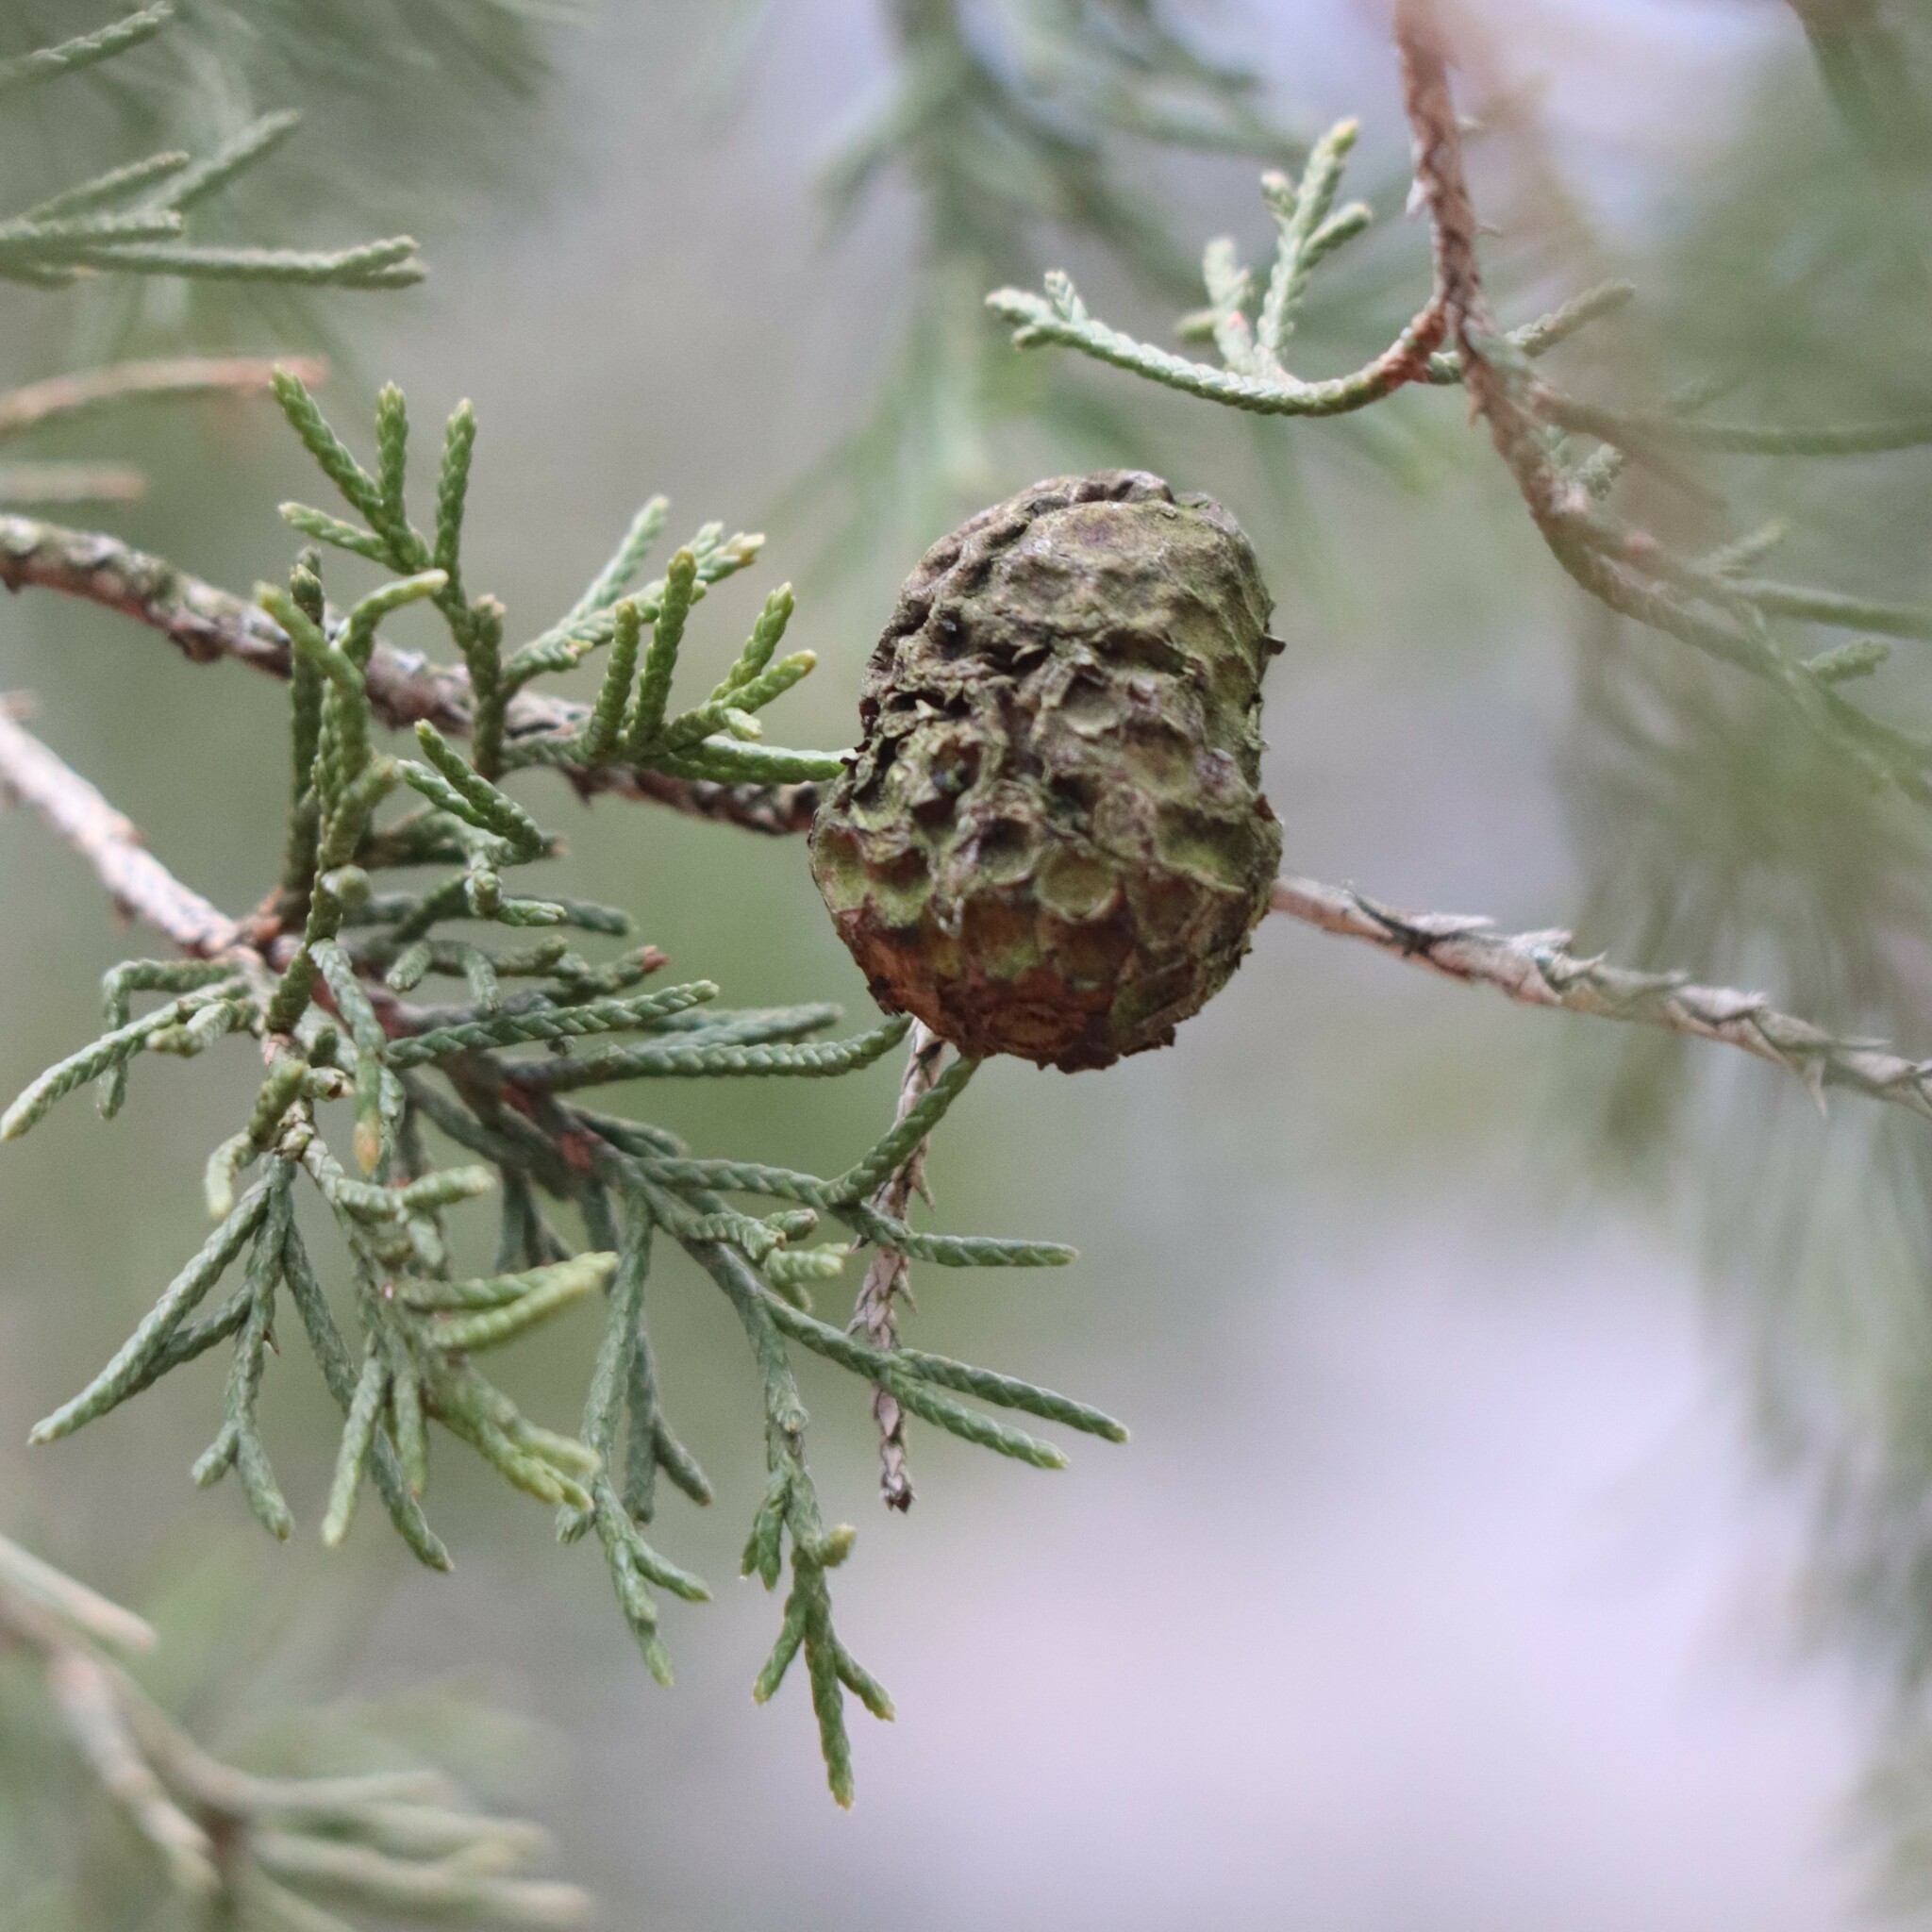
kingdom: Fungi
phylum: Basidiomycota
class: Pucciniomycetes
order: Pucciniales
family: Gymnosporangiaceae
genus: Gymnosporangium
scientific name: Gymnosporangium juniperi-virginianae
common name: Juniper-apple rust
